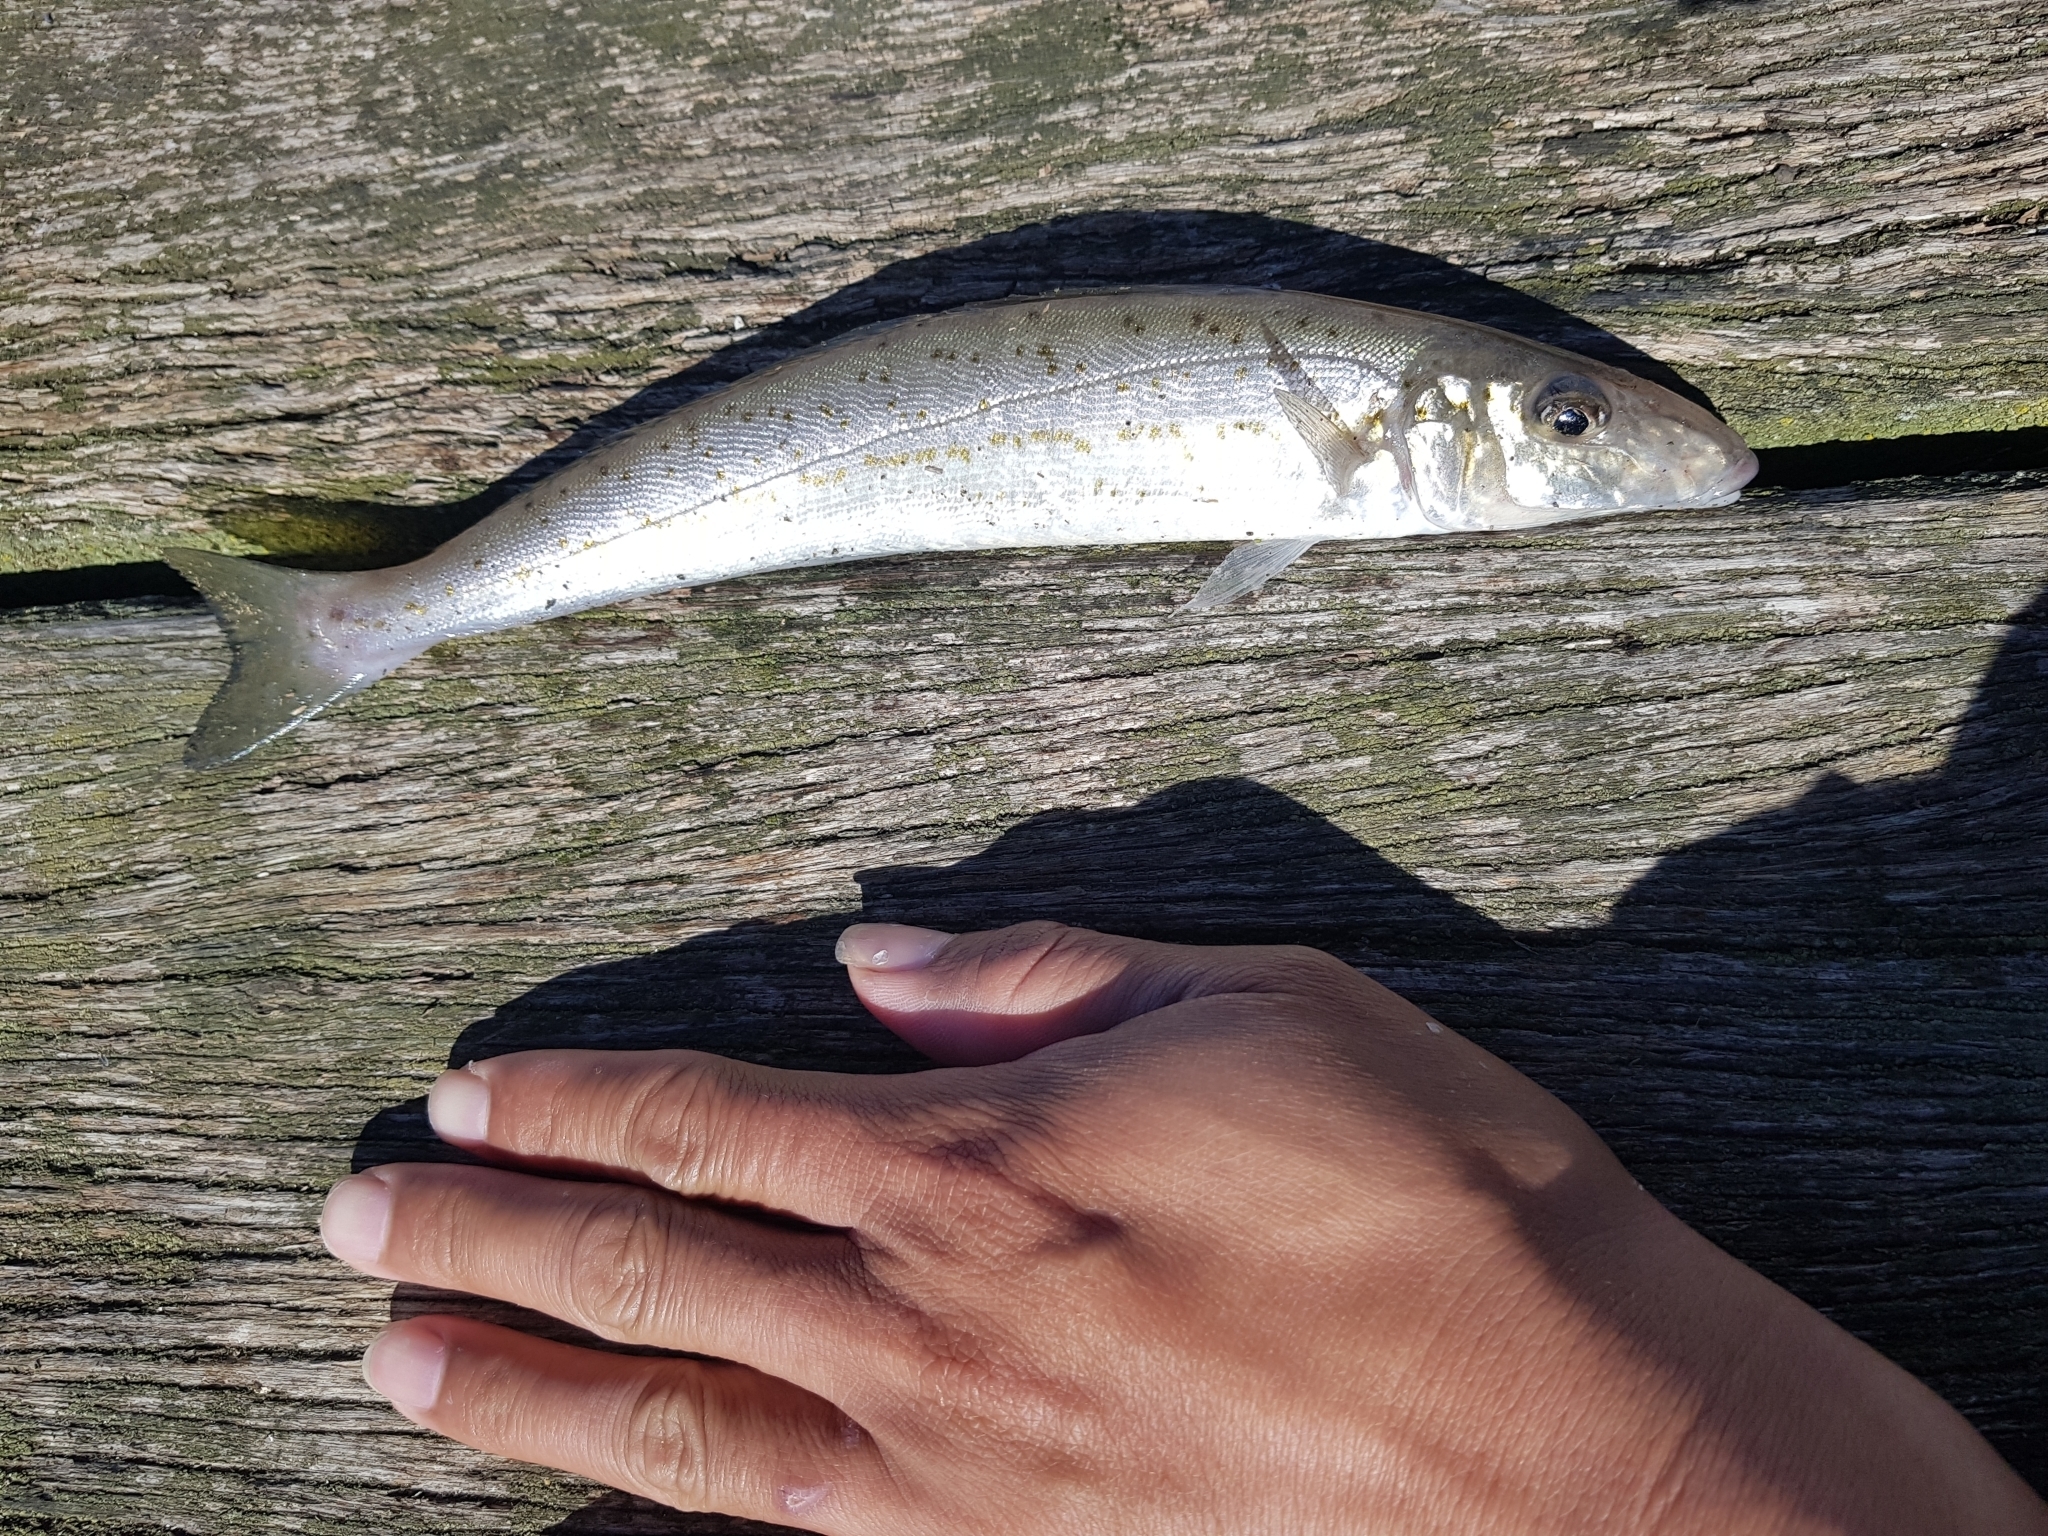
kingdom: Animalia
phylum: Chordata
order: Perciformes
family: Sillaginidae
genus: Sillaginodes
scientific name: Sillaginodes punctatus
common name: King george whiting
